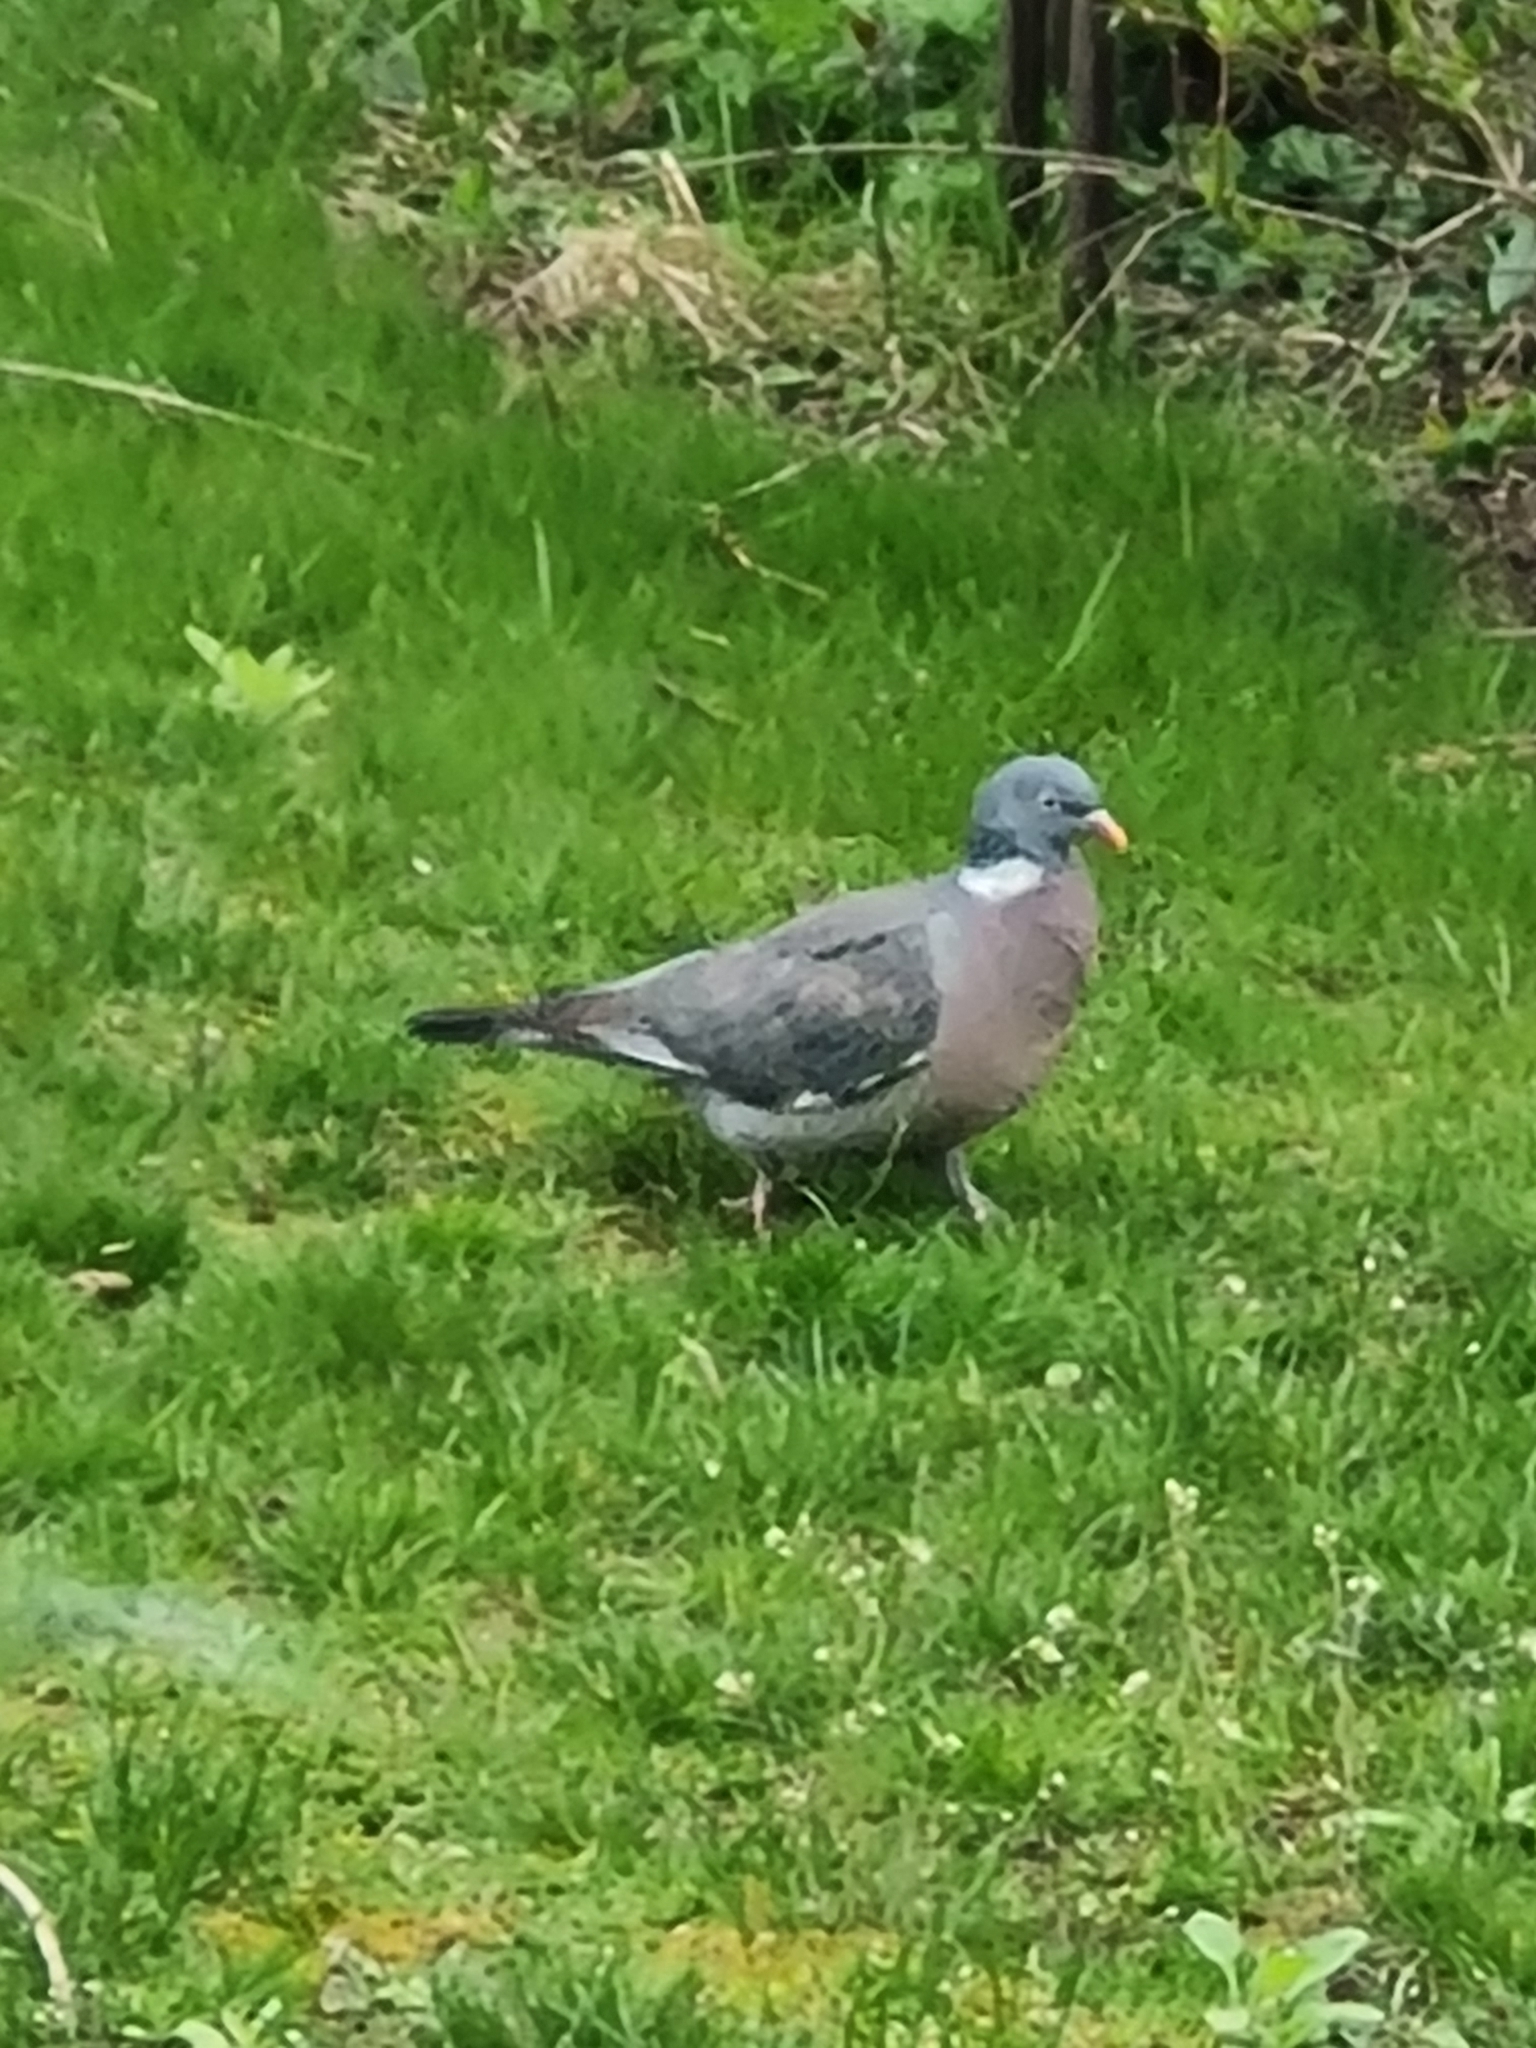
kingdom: Animalia
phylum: Chordata
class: Aves
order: Columbiformes
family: Columbidae
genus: Columba
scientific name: Columba palumbus
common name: Common wood pigeon
